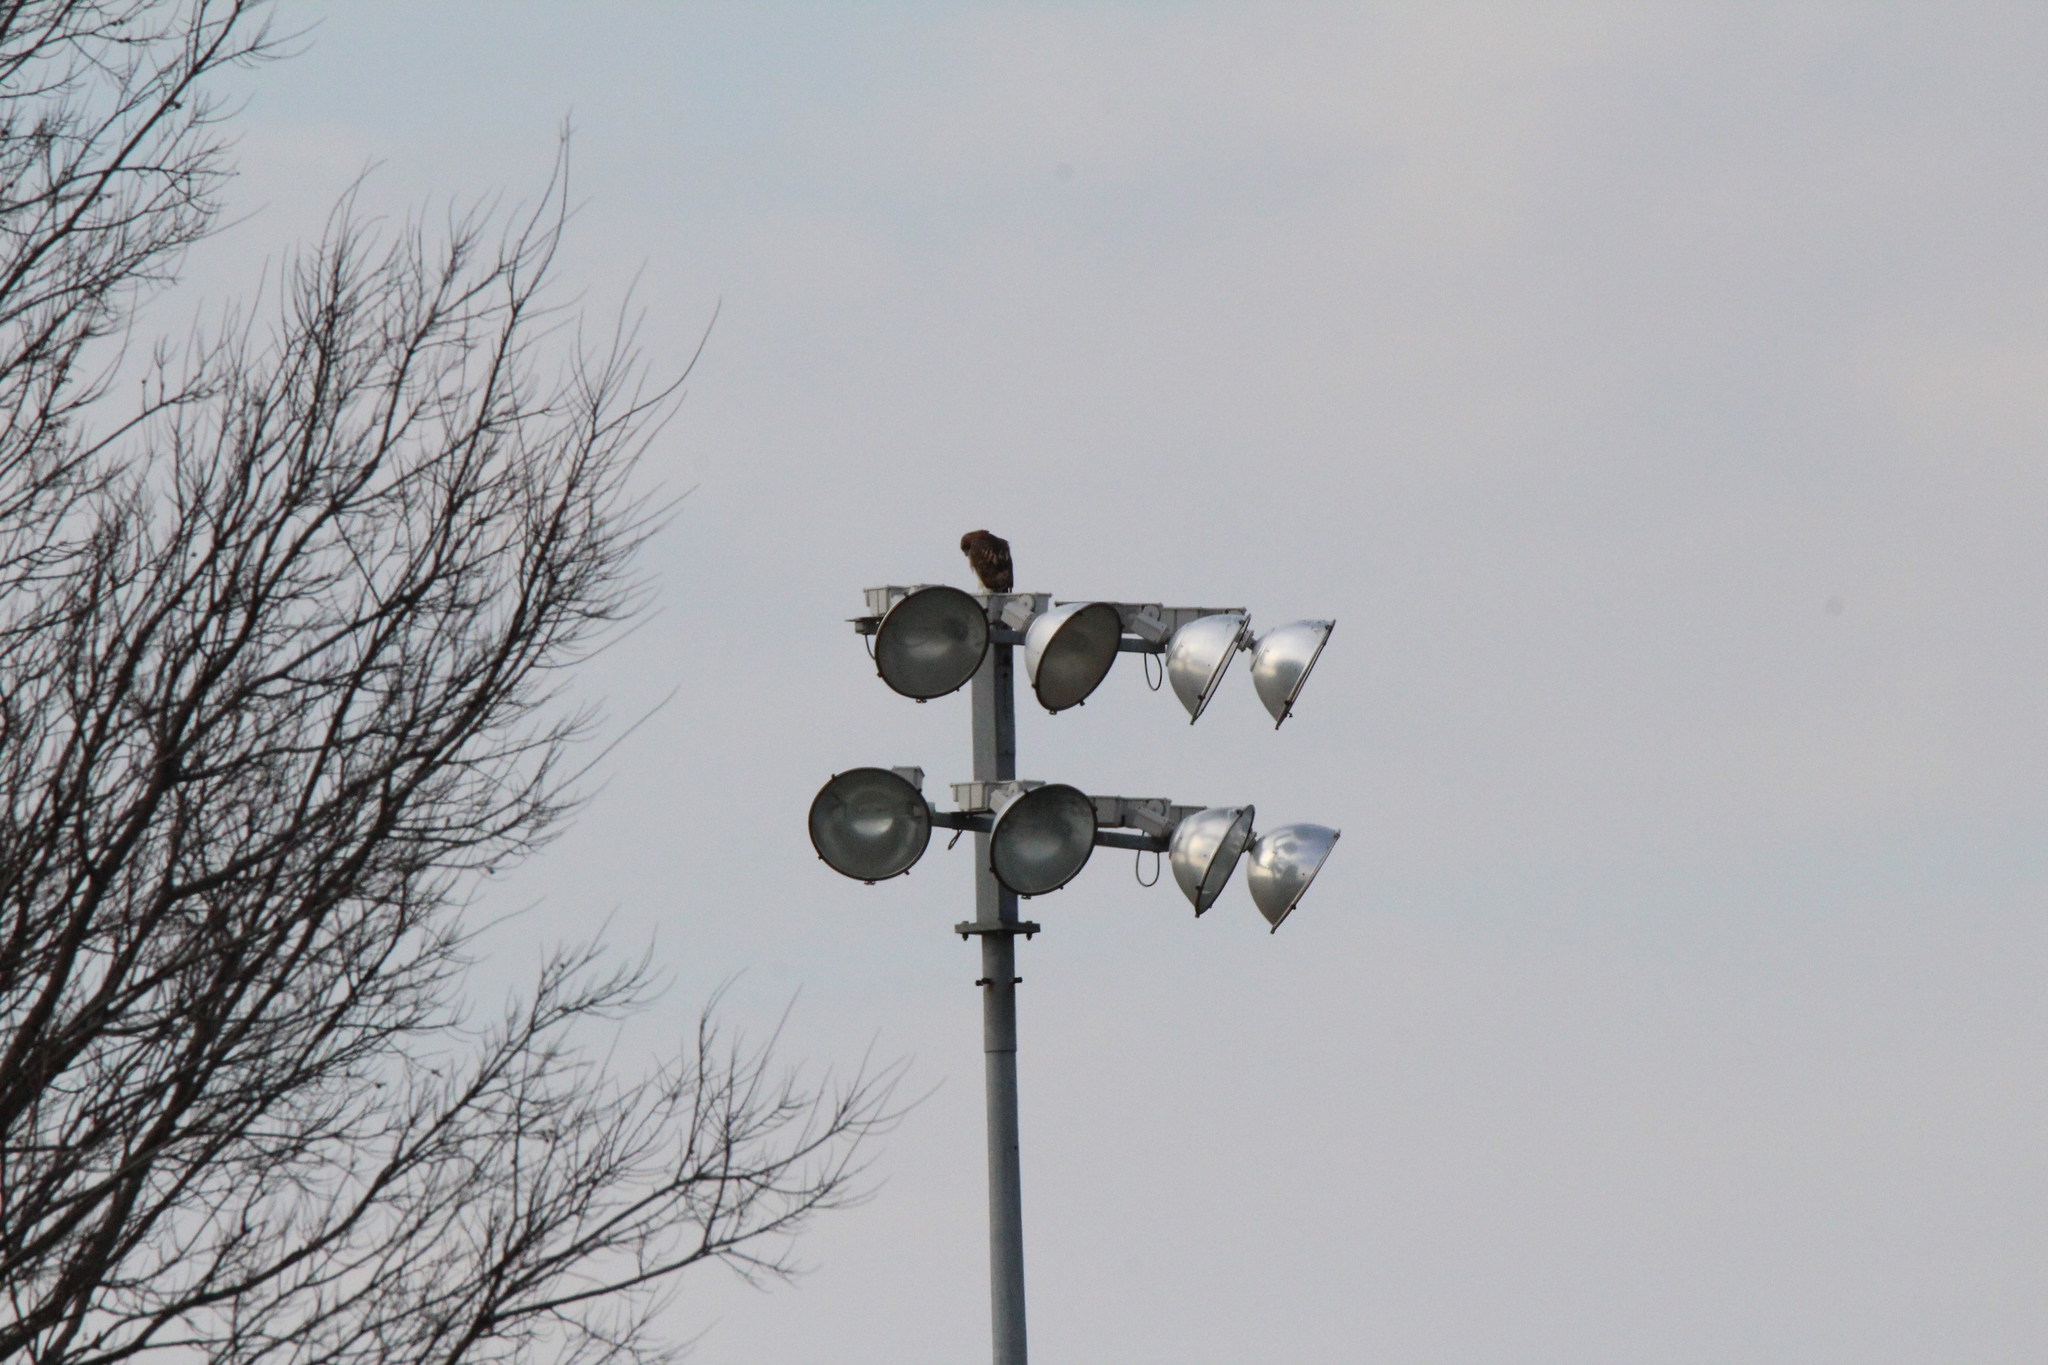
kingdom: Animalia
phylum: Chordata
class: Aves
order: Accipitriformes
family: Accipitridae
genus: Buteo
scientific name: Buteo jamaicensis
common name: Red-tailed hawk
